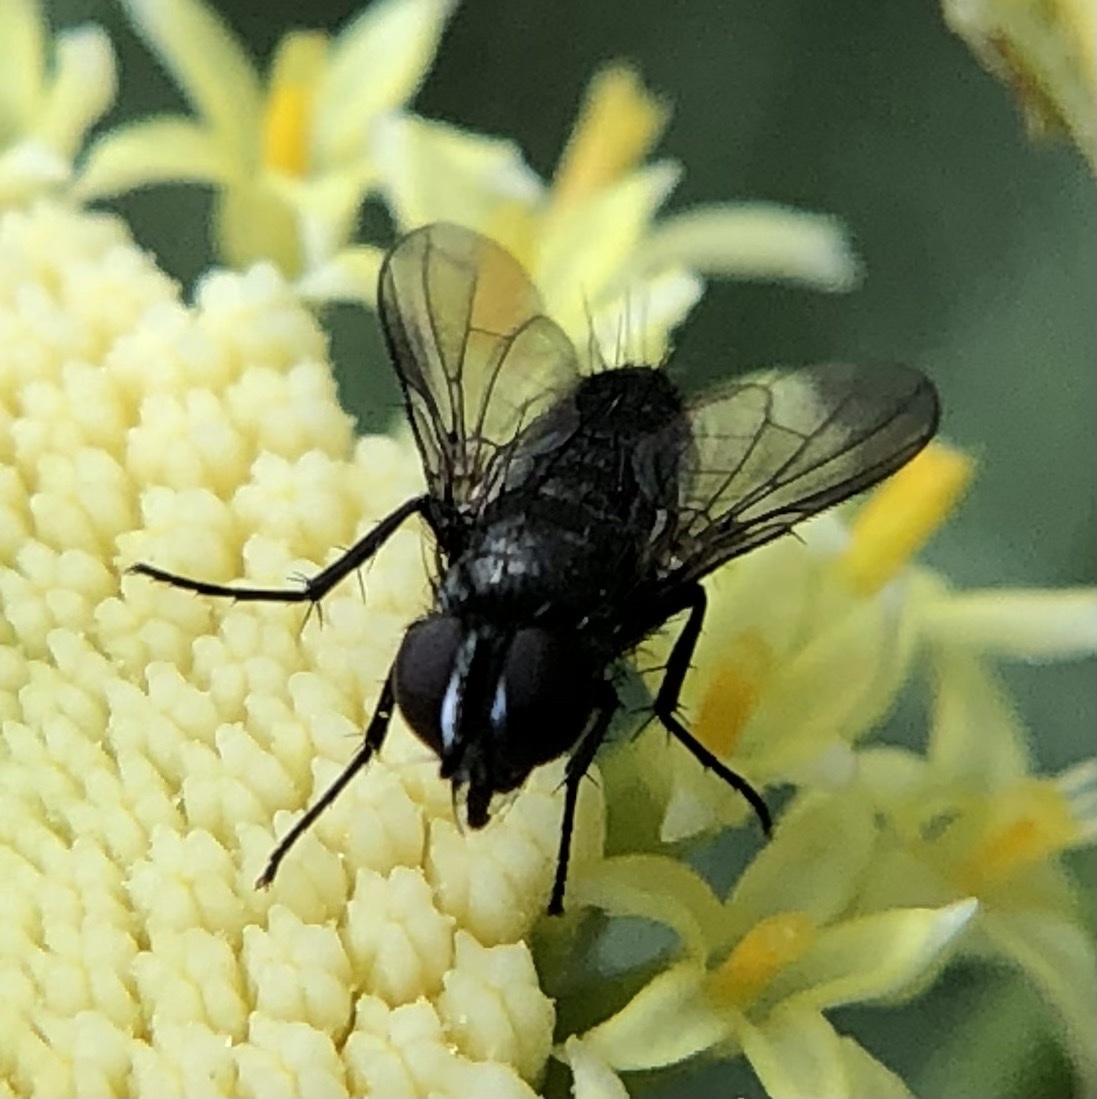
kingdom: Animalia
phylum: Arthropoda
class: Insecta
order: Diptera
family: Calliphoridae
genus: Rhinophora
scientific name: Rhinophora lepida
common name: Pouting woodlouse-fly
